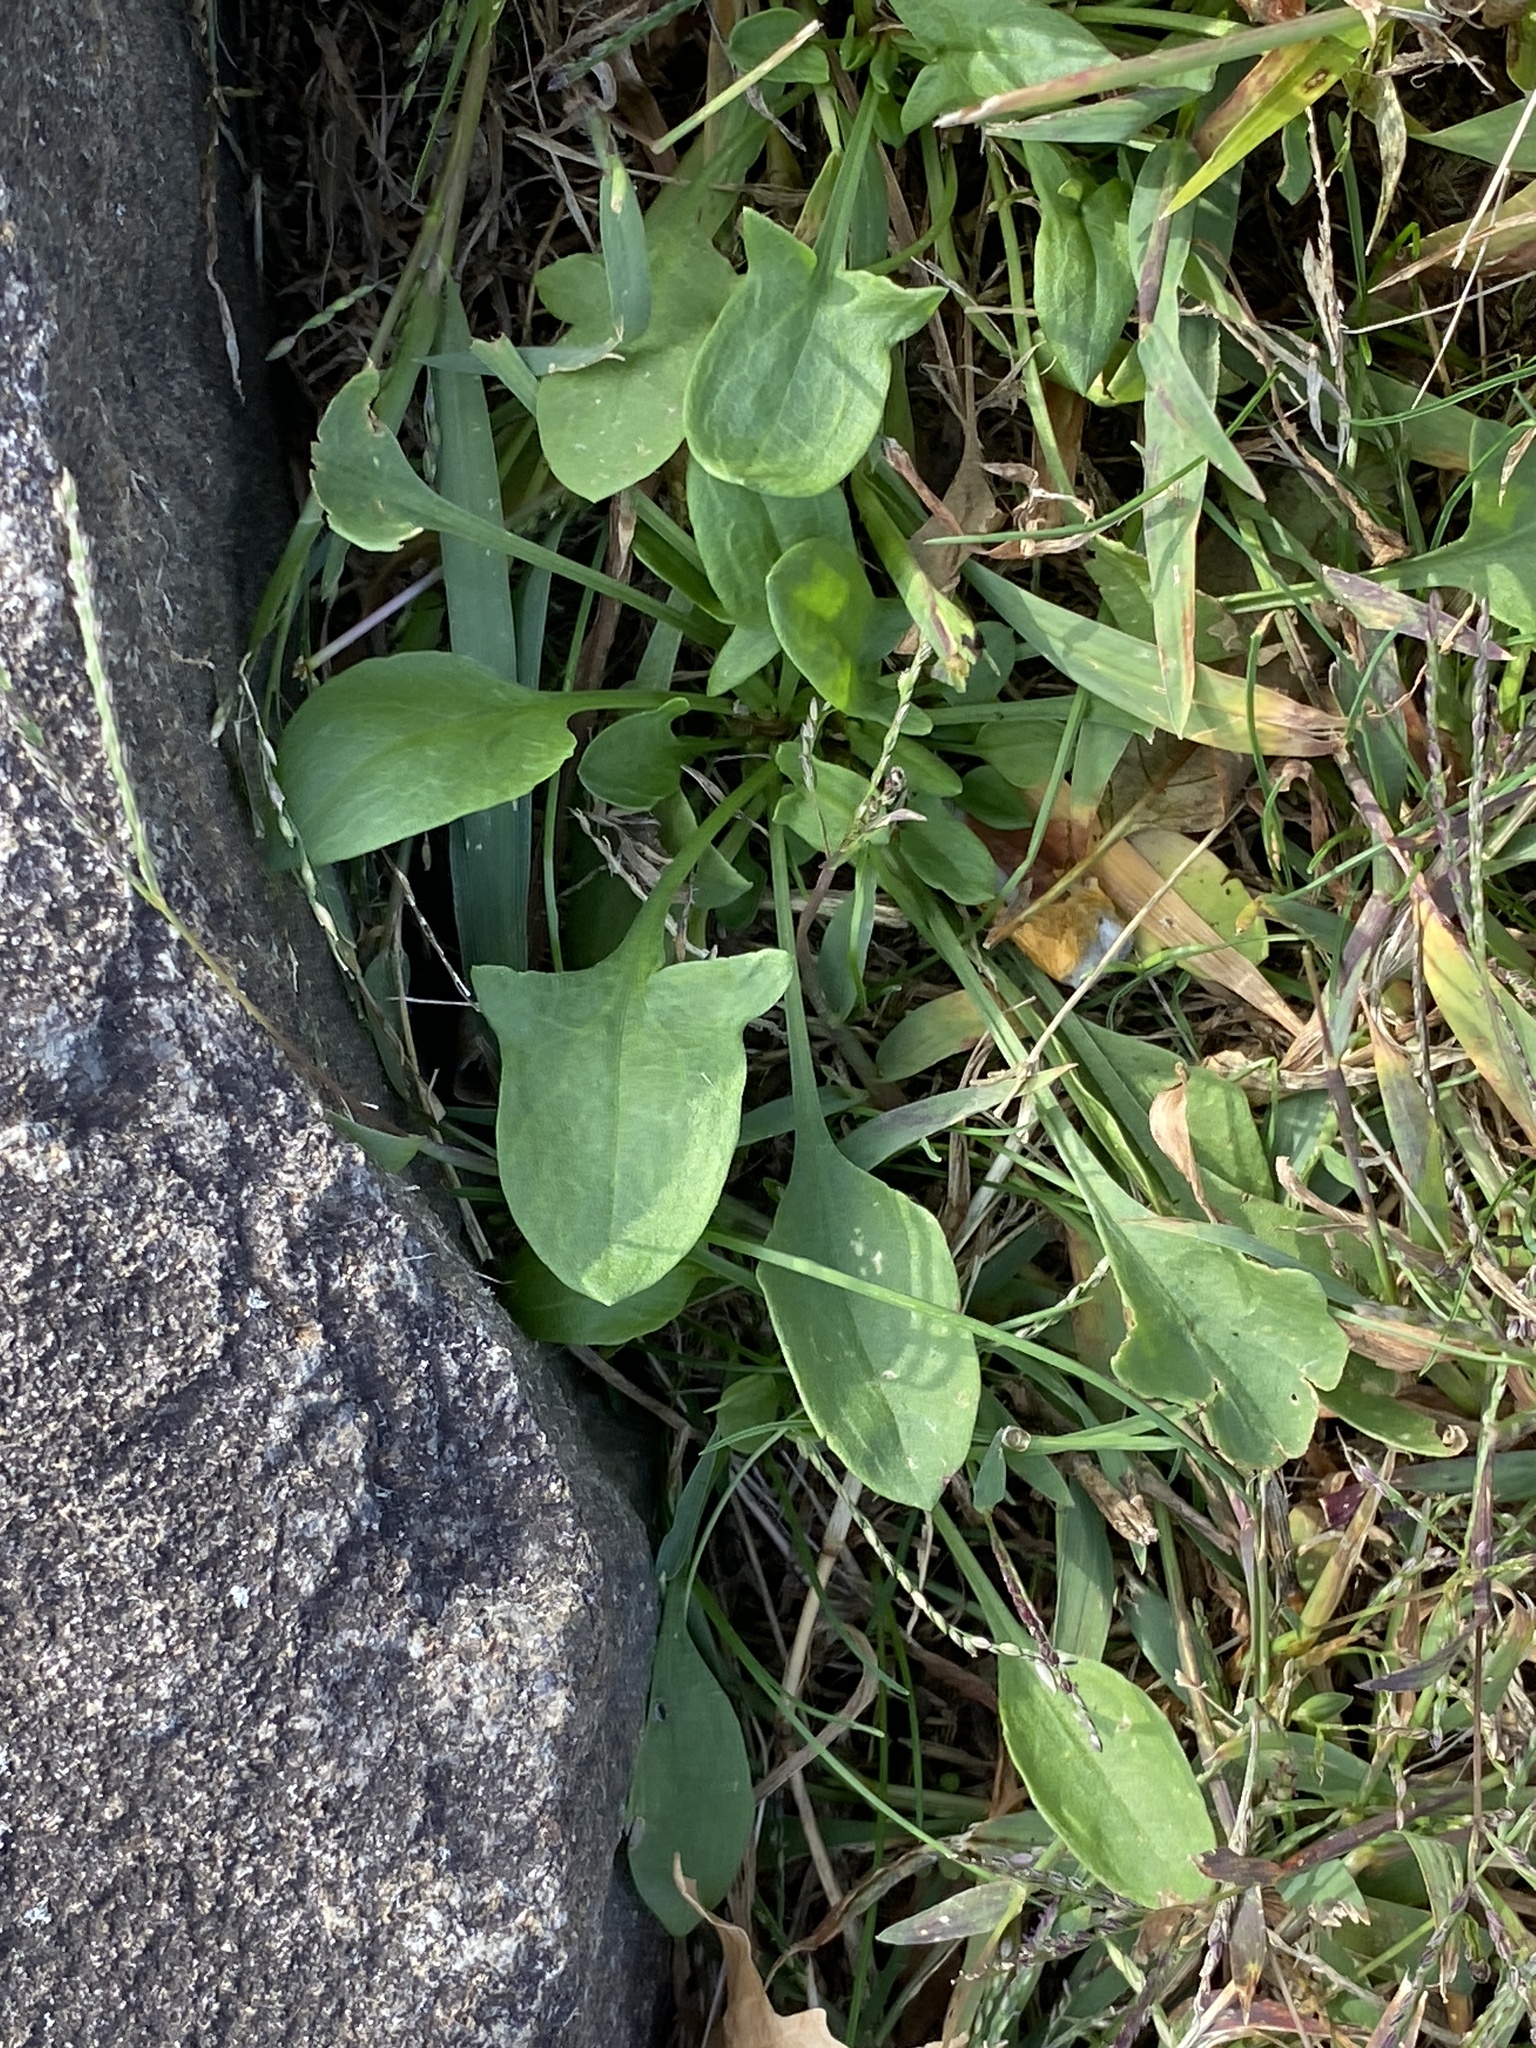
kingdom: Plantae
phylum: Tracheophyta
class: Magnoliopsida
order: Caryophyllales
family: Polygonaceae
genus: Rumex
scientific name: Rumex acetosella
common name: Common sheep sorrel
